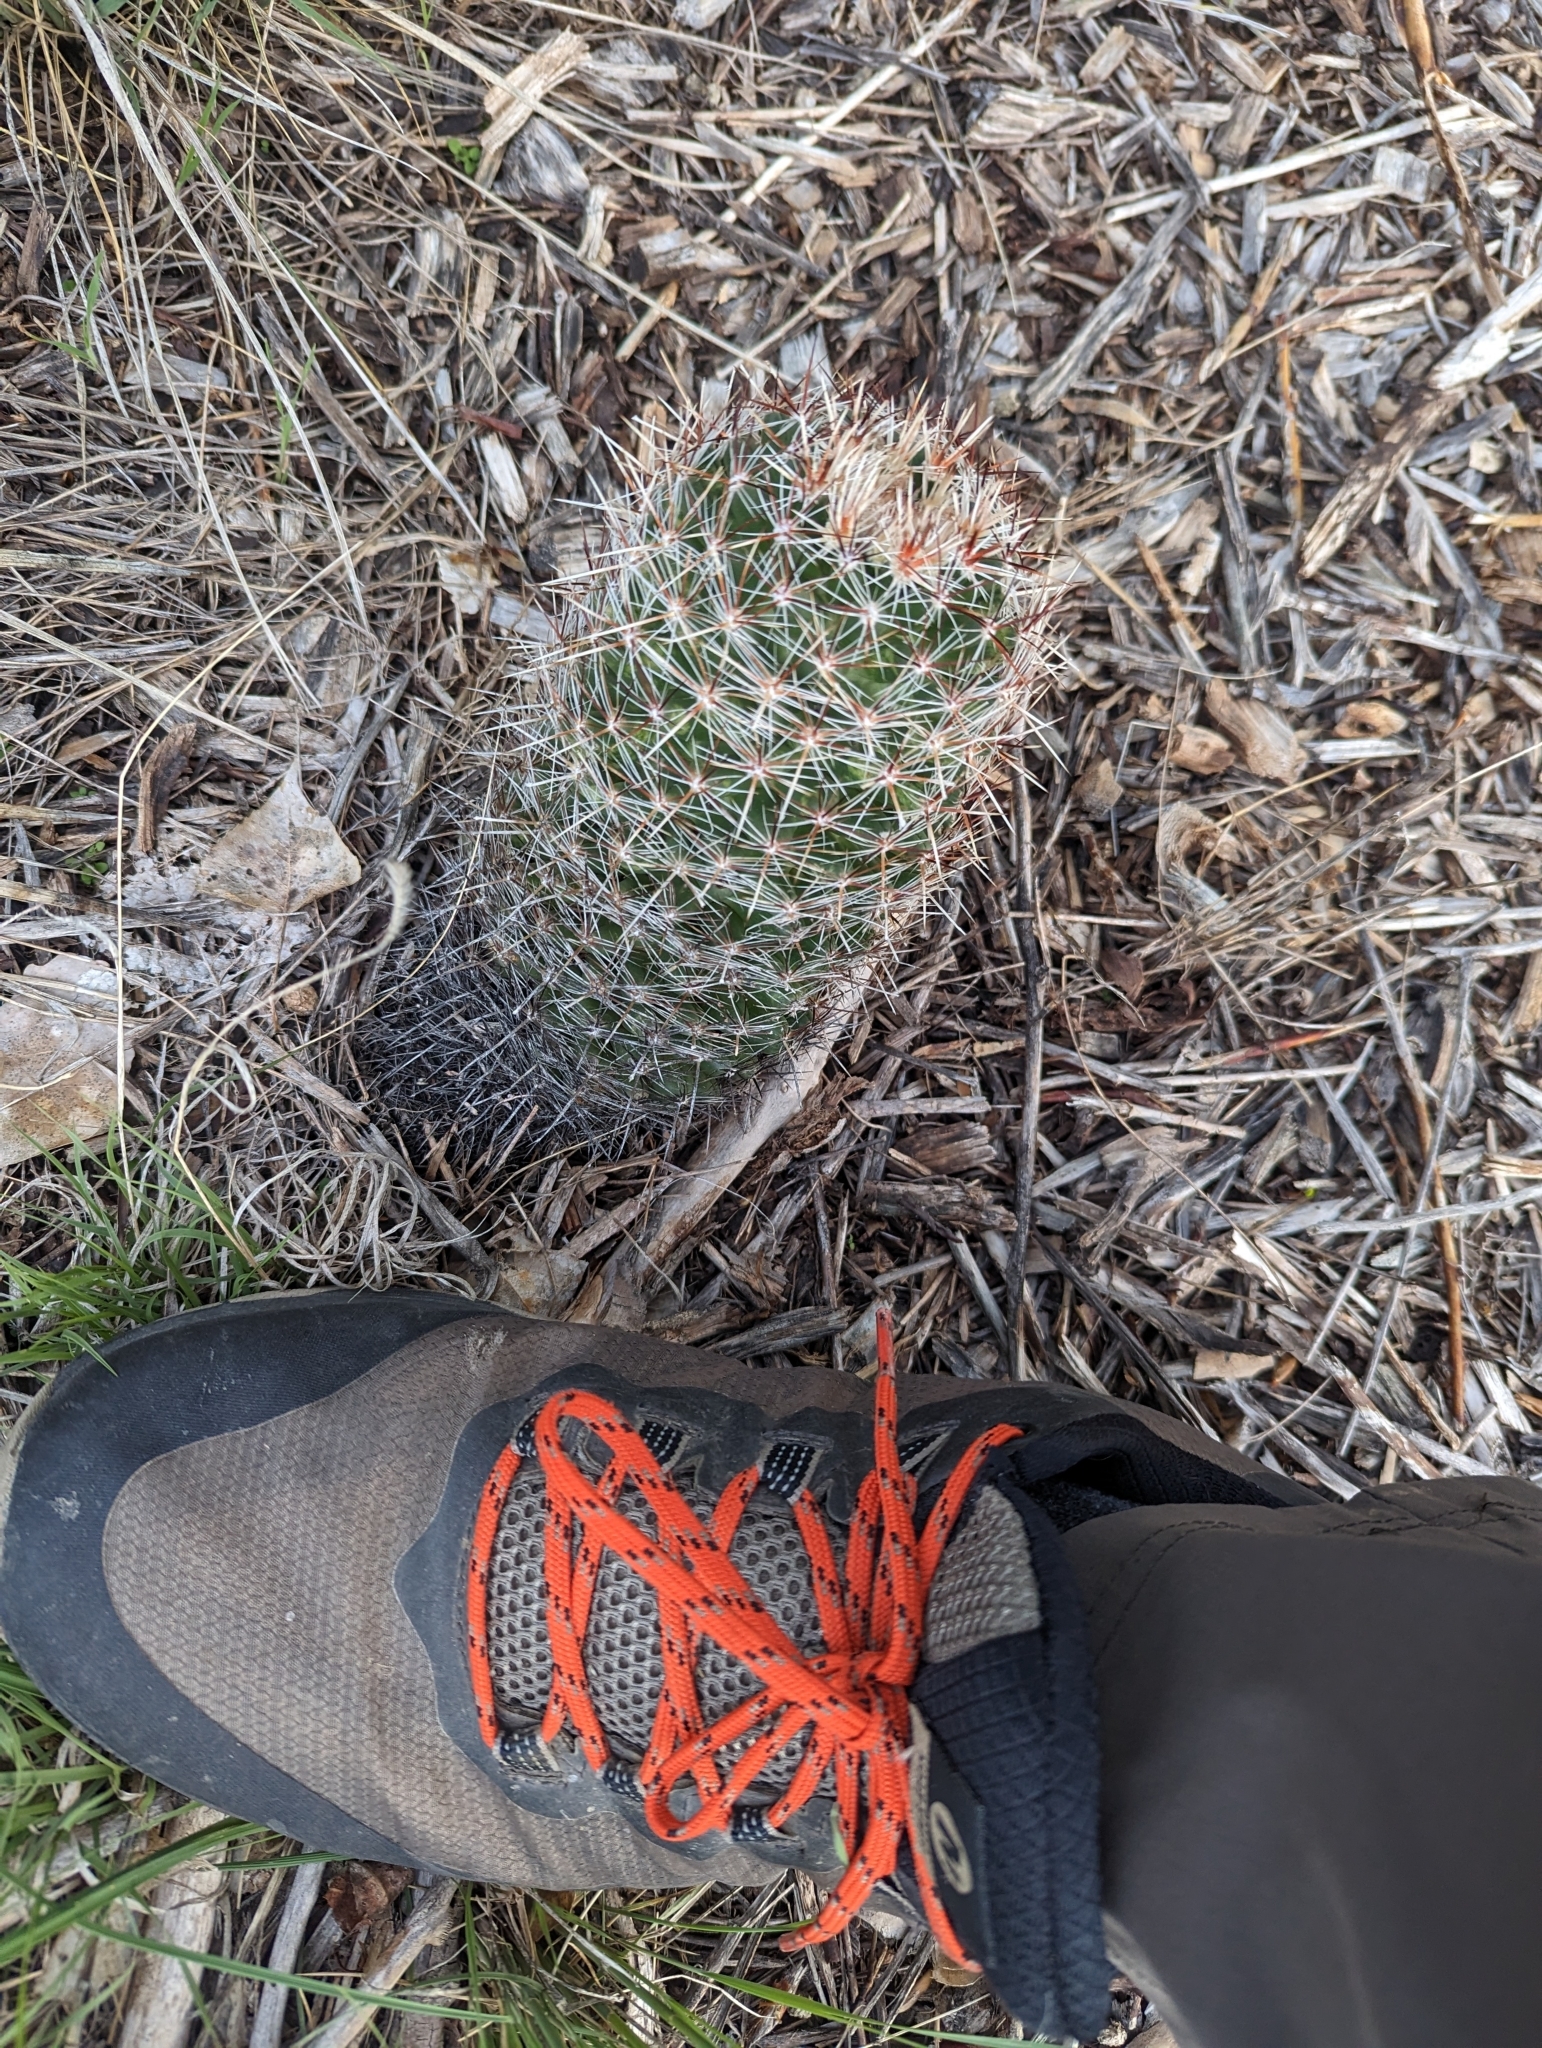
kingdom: Plantae
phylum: Tracheophyta
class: Magnoliopsida
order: Caryophyllales
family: Cactaceae
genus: Pelecyphora
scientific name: Pelecyphora vivipara
